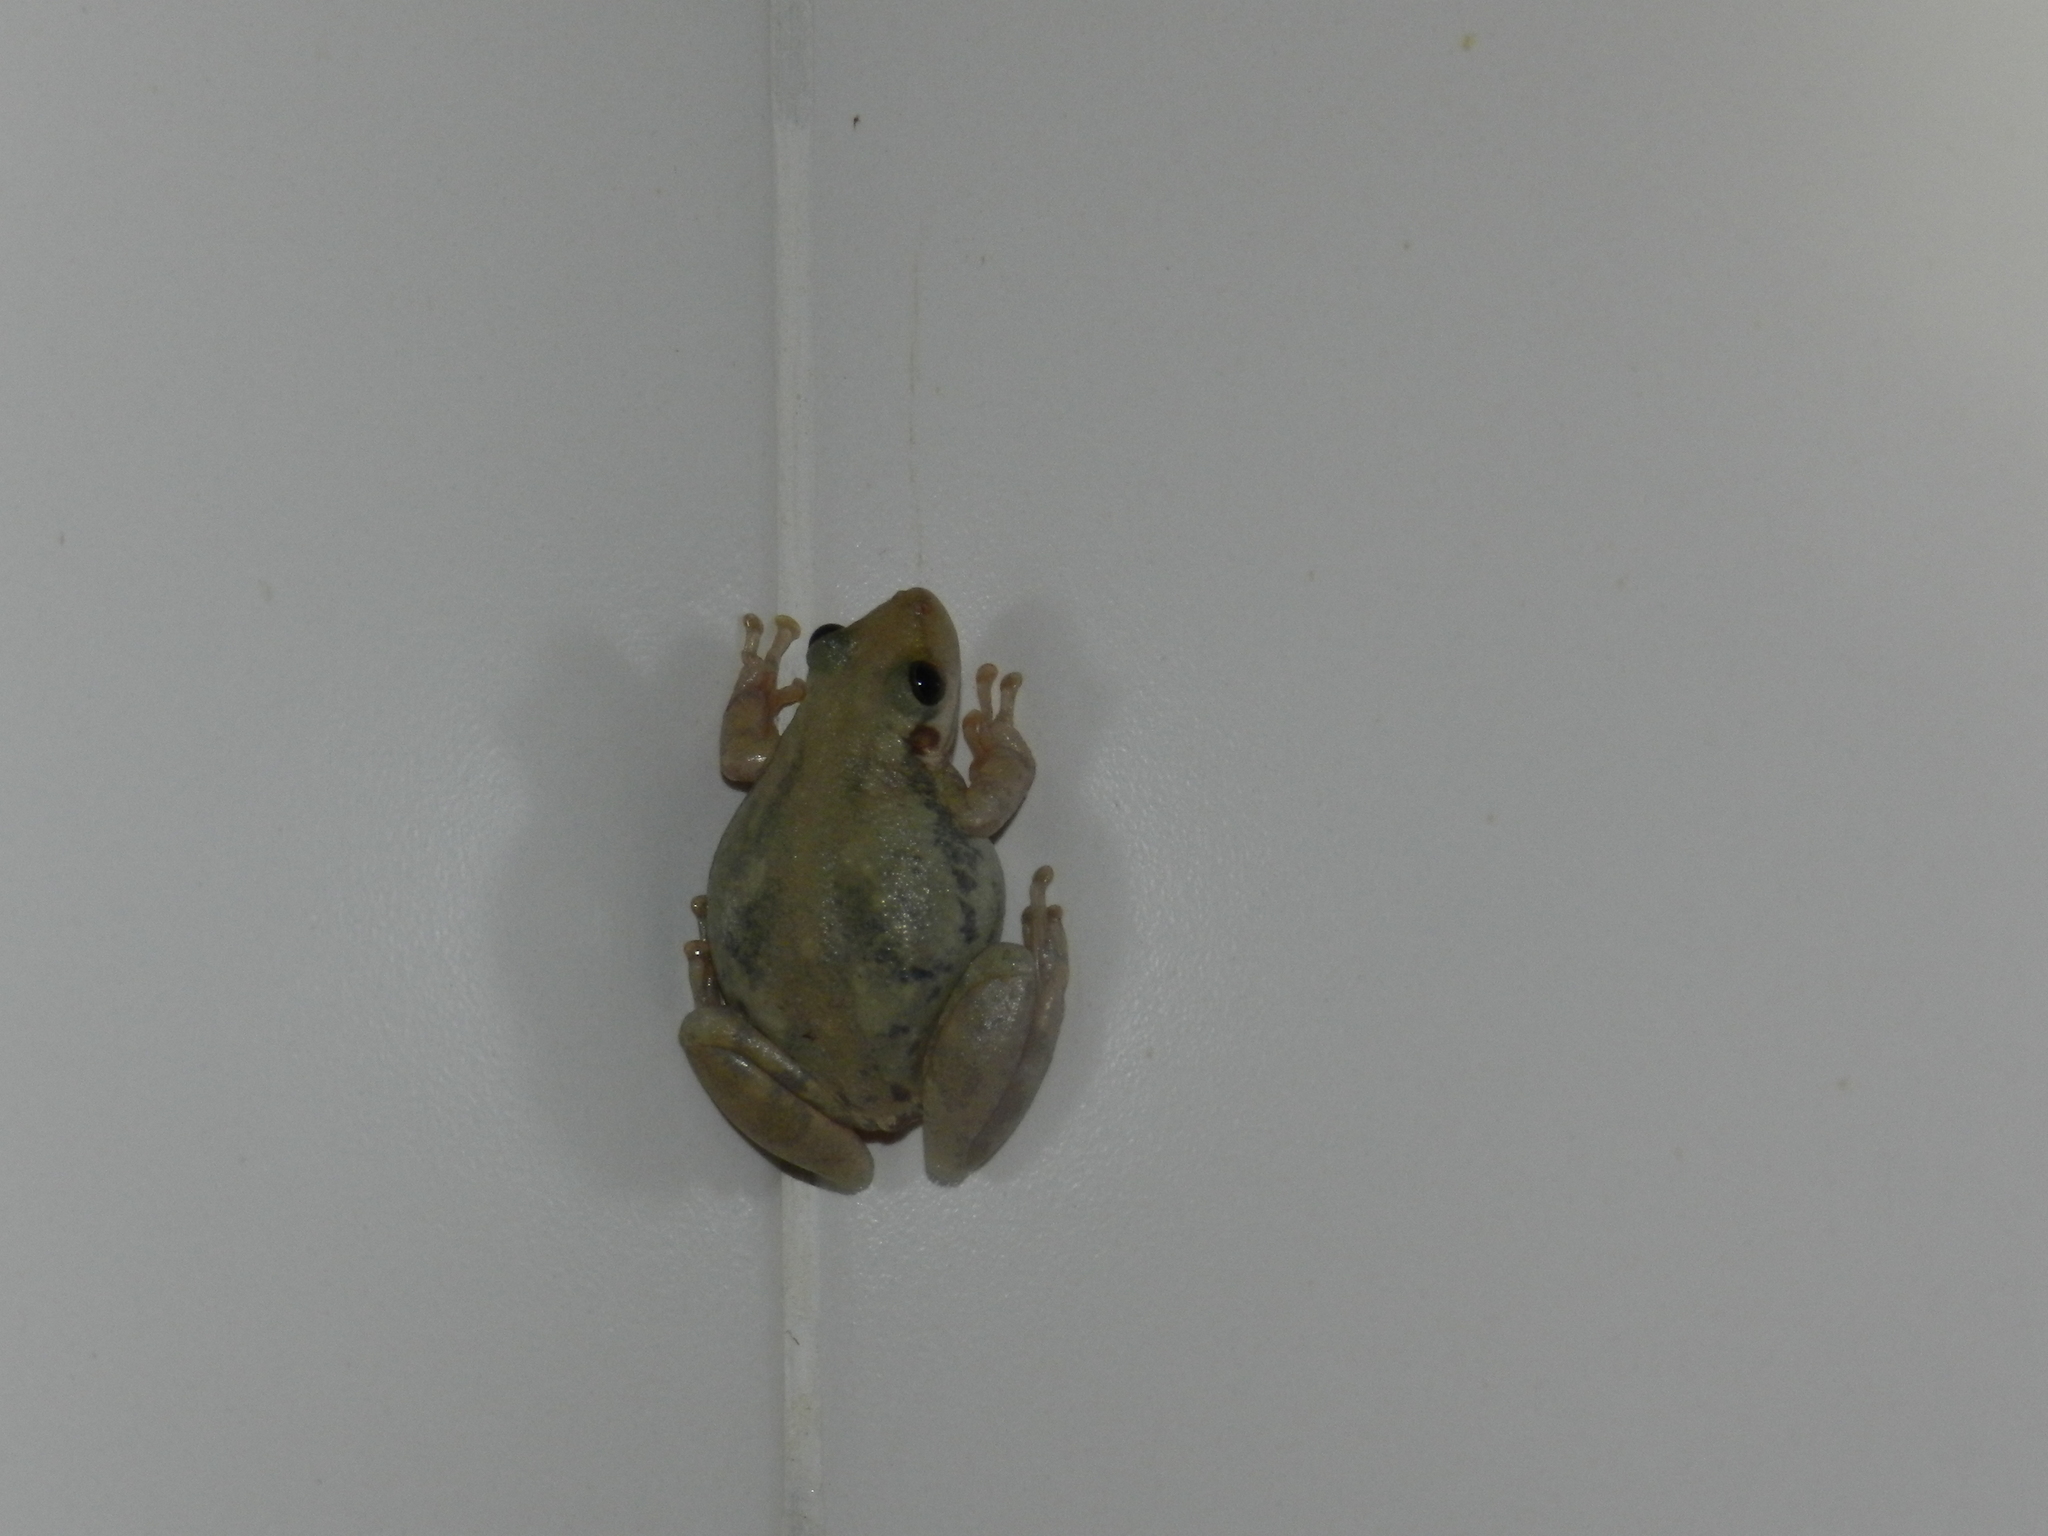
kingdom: Animalia
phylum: Chordata
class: Amphibia
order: Anura
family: Hylidae
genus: Scinax
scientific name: Scinax fuscomarginatus
